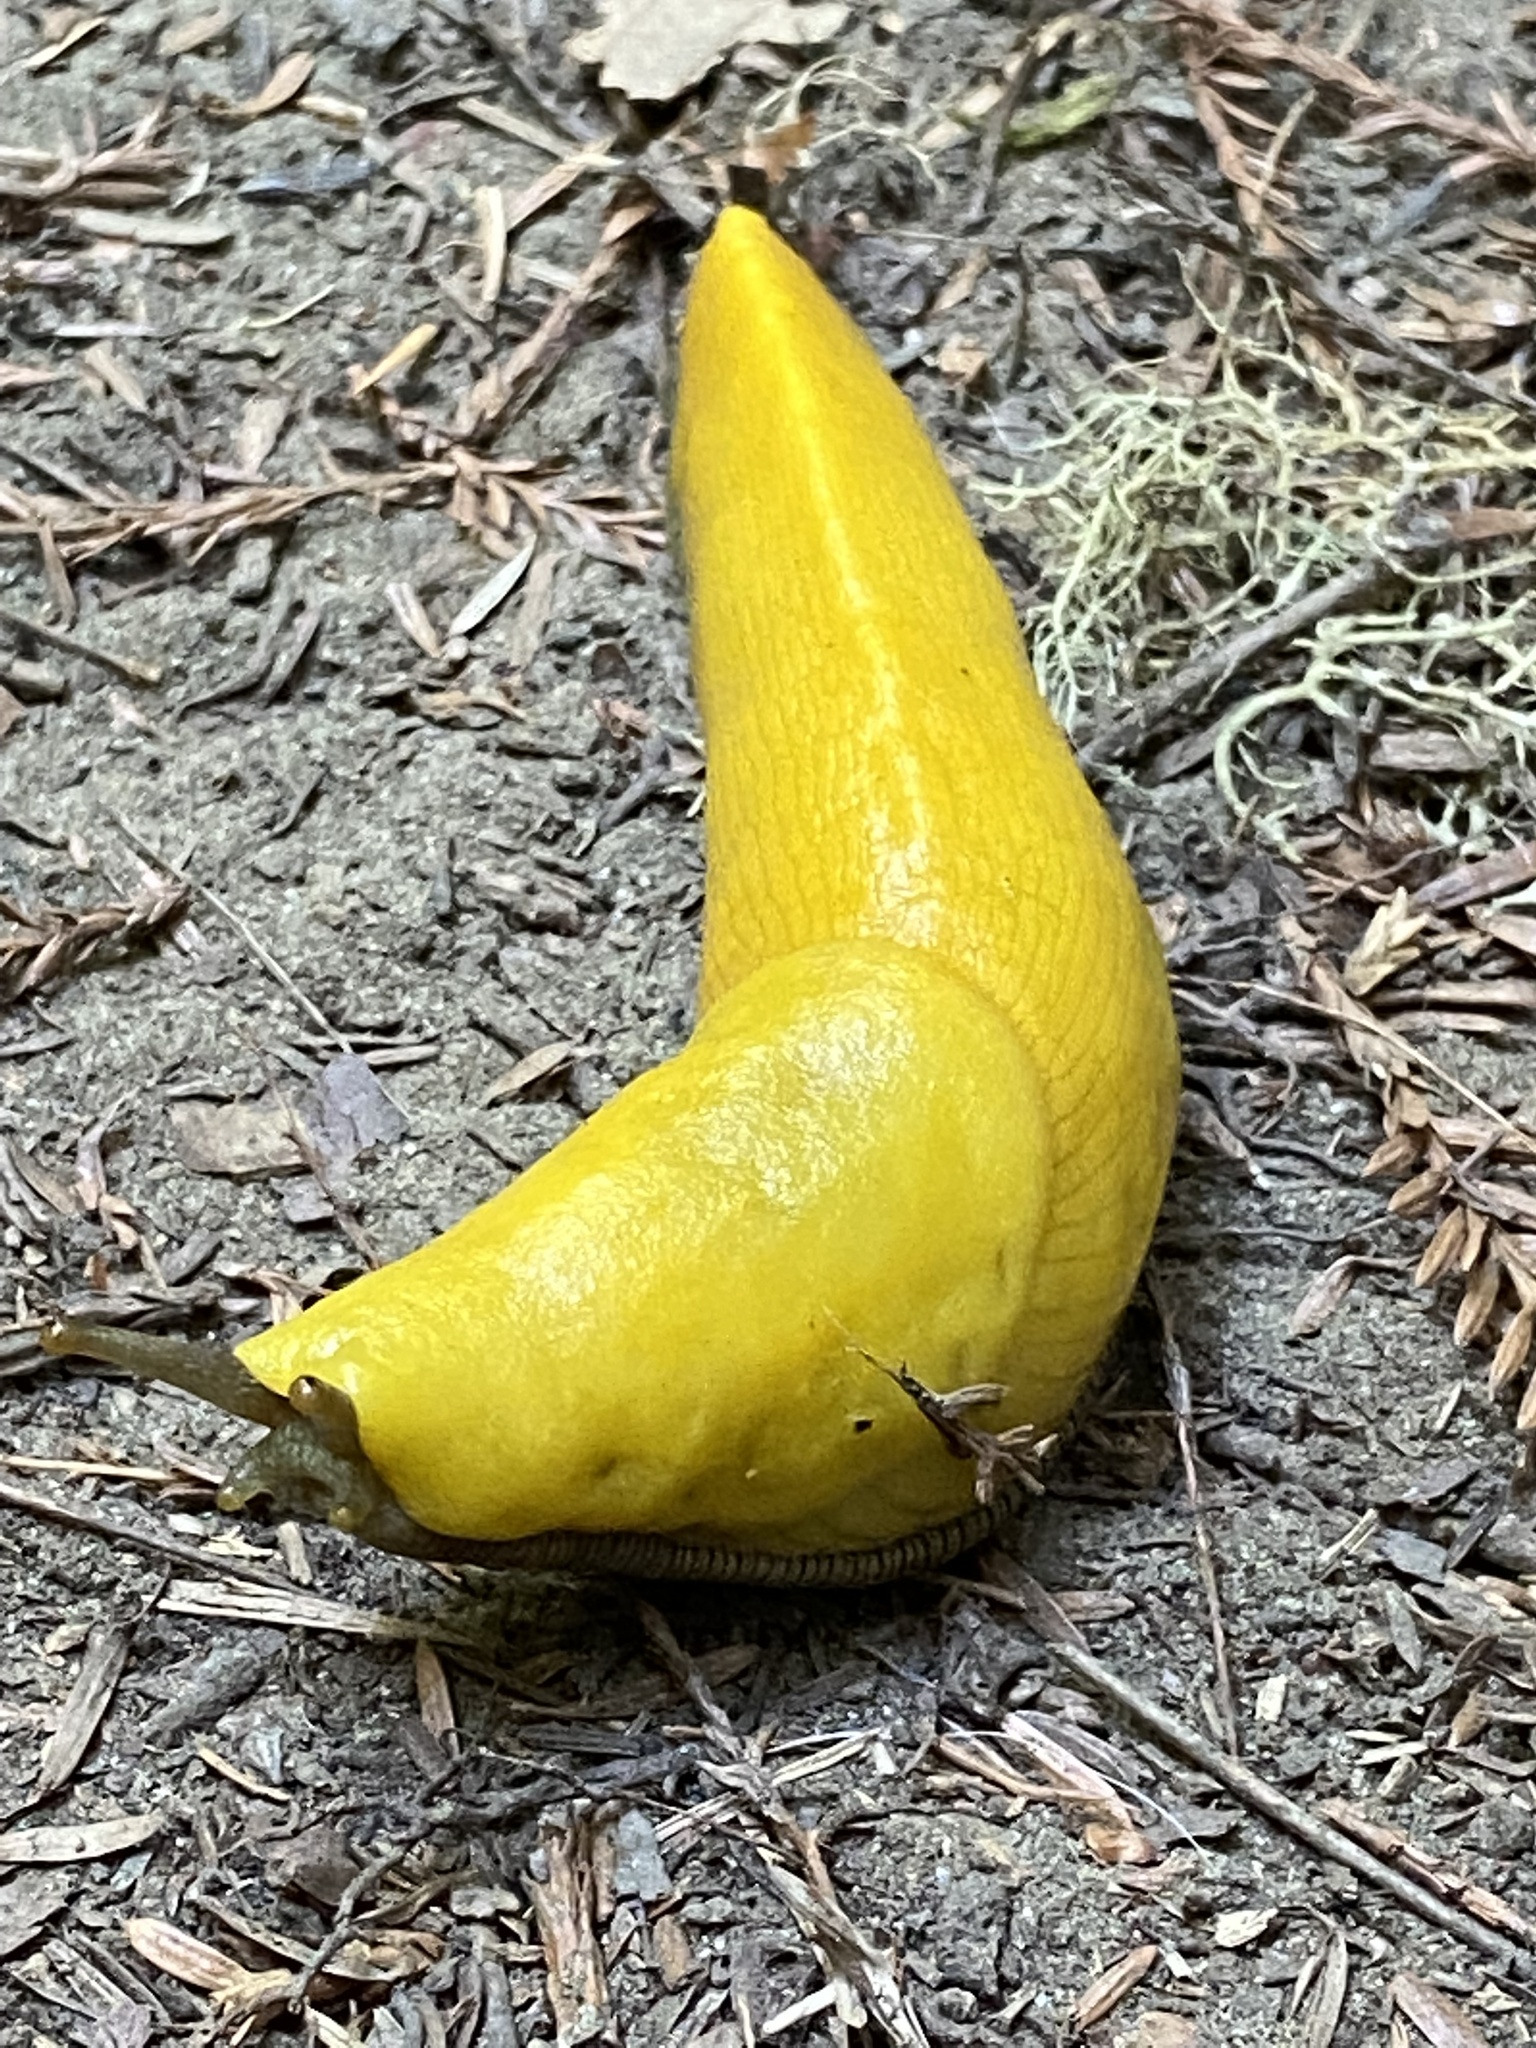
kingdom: Animalia
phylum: Mollusca
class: Gastropoda
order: Stylommatophora
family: Ariolimacidae
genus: Ariolimax
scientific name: Ariolimax dolichophallus
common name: Slender banana slug
